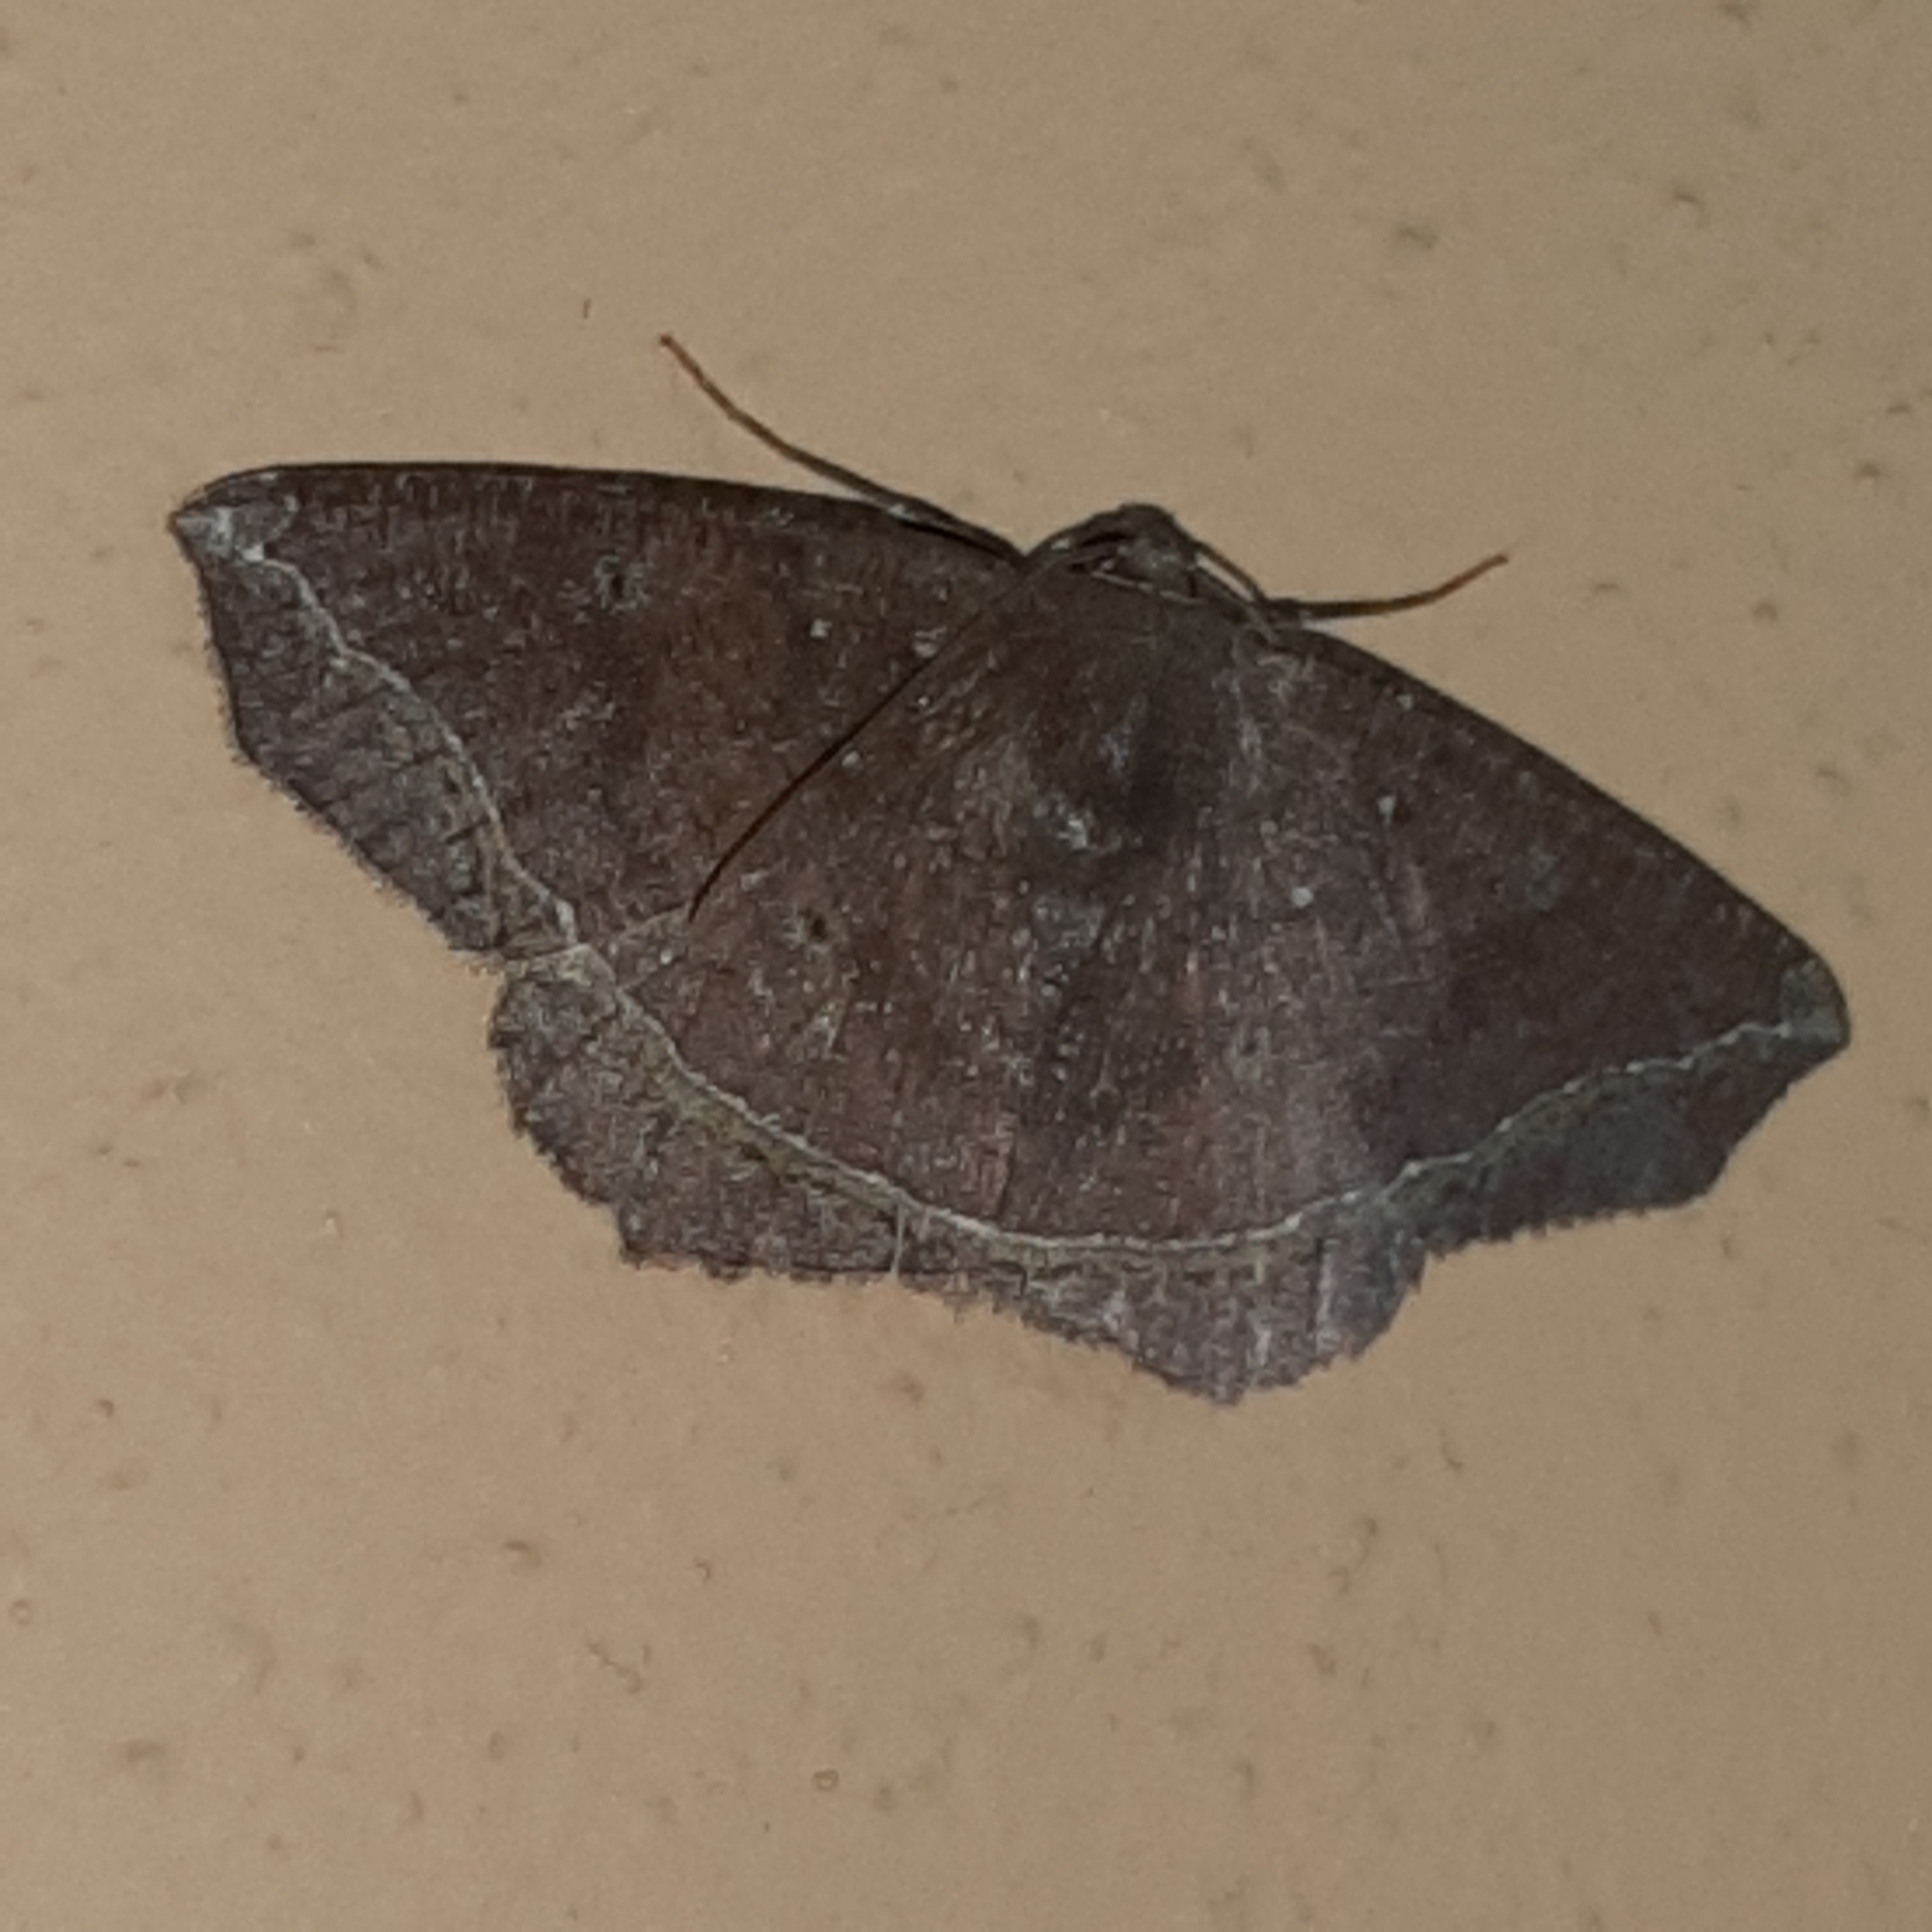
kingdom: Animalia
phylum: Arthropoda
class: Insecta
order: Lepidoptera
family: Geometridae
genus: Synnomos
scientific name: Synnomos firmamentaria
